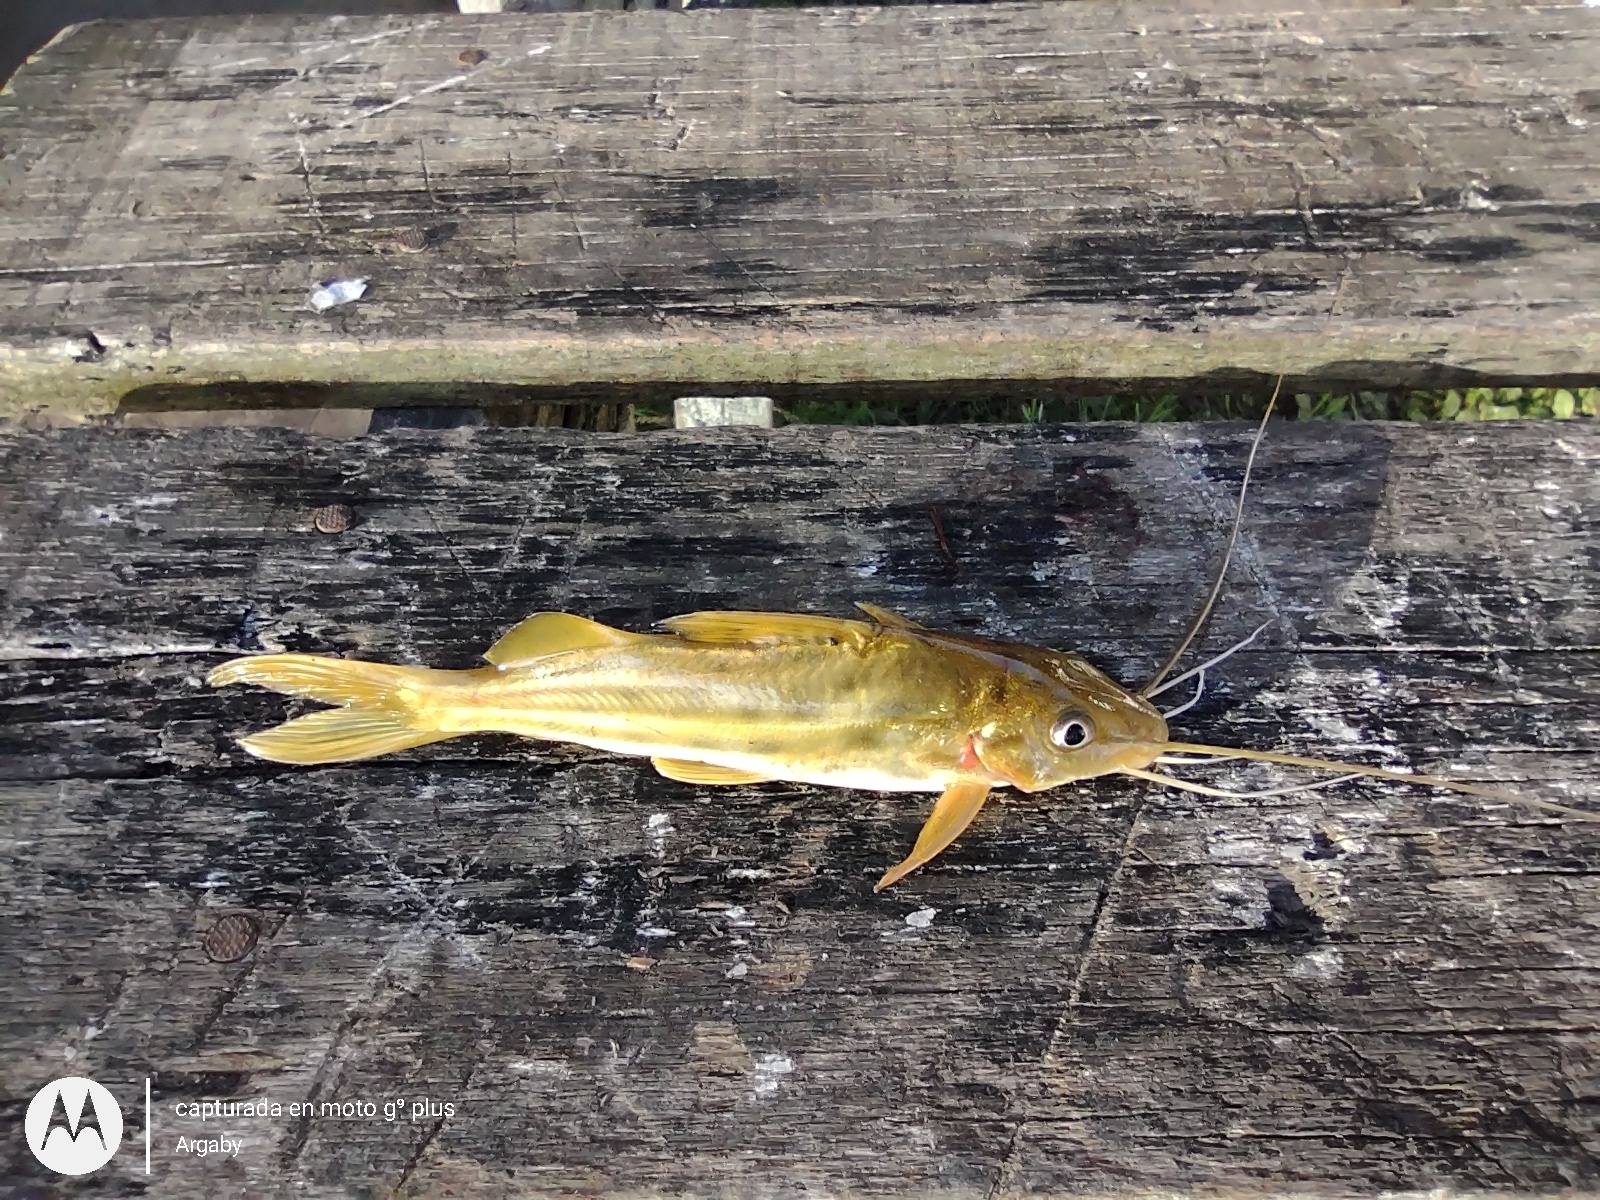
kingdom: Animalia
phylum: Chordata
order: Siluriformes
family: Pimelodidae
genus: Pimelodus
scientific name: Pimelodus maculatus
